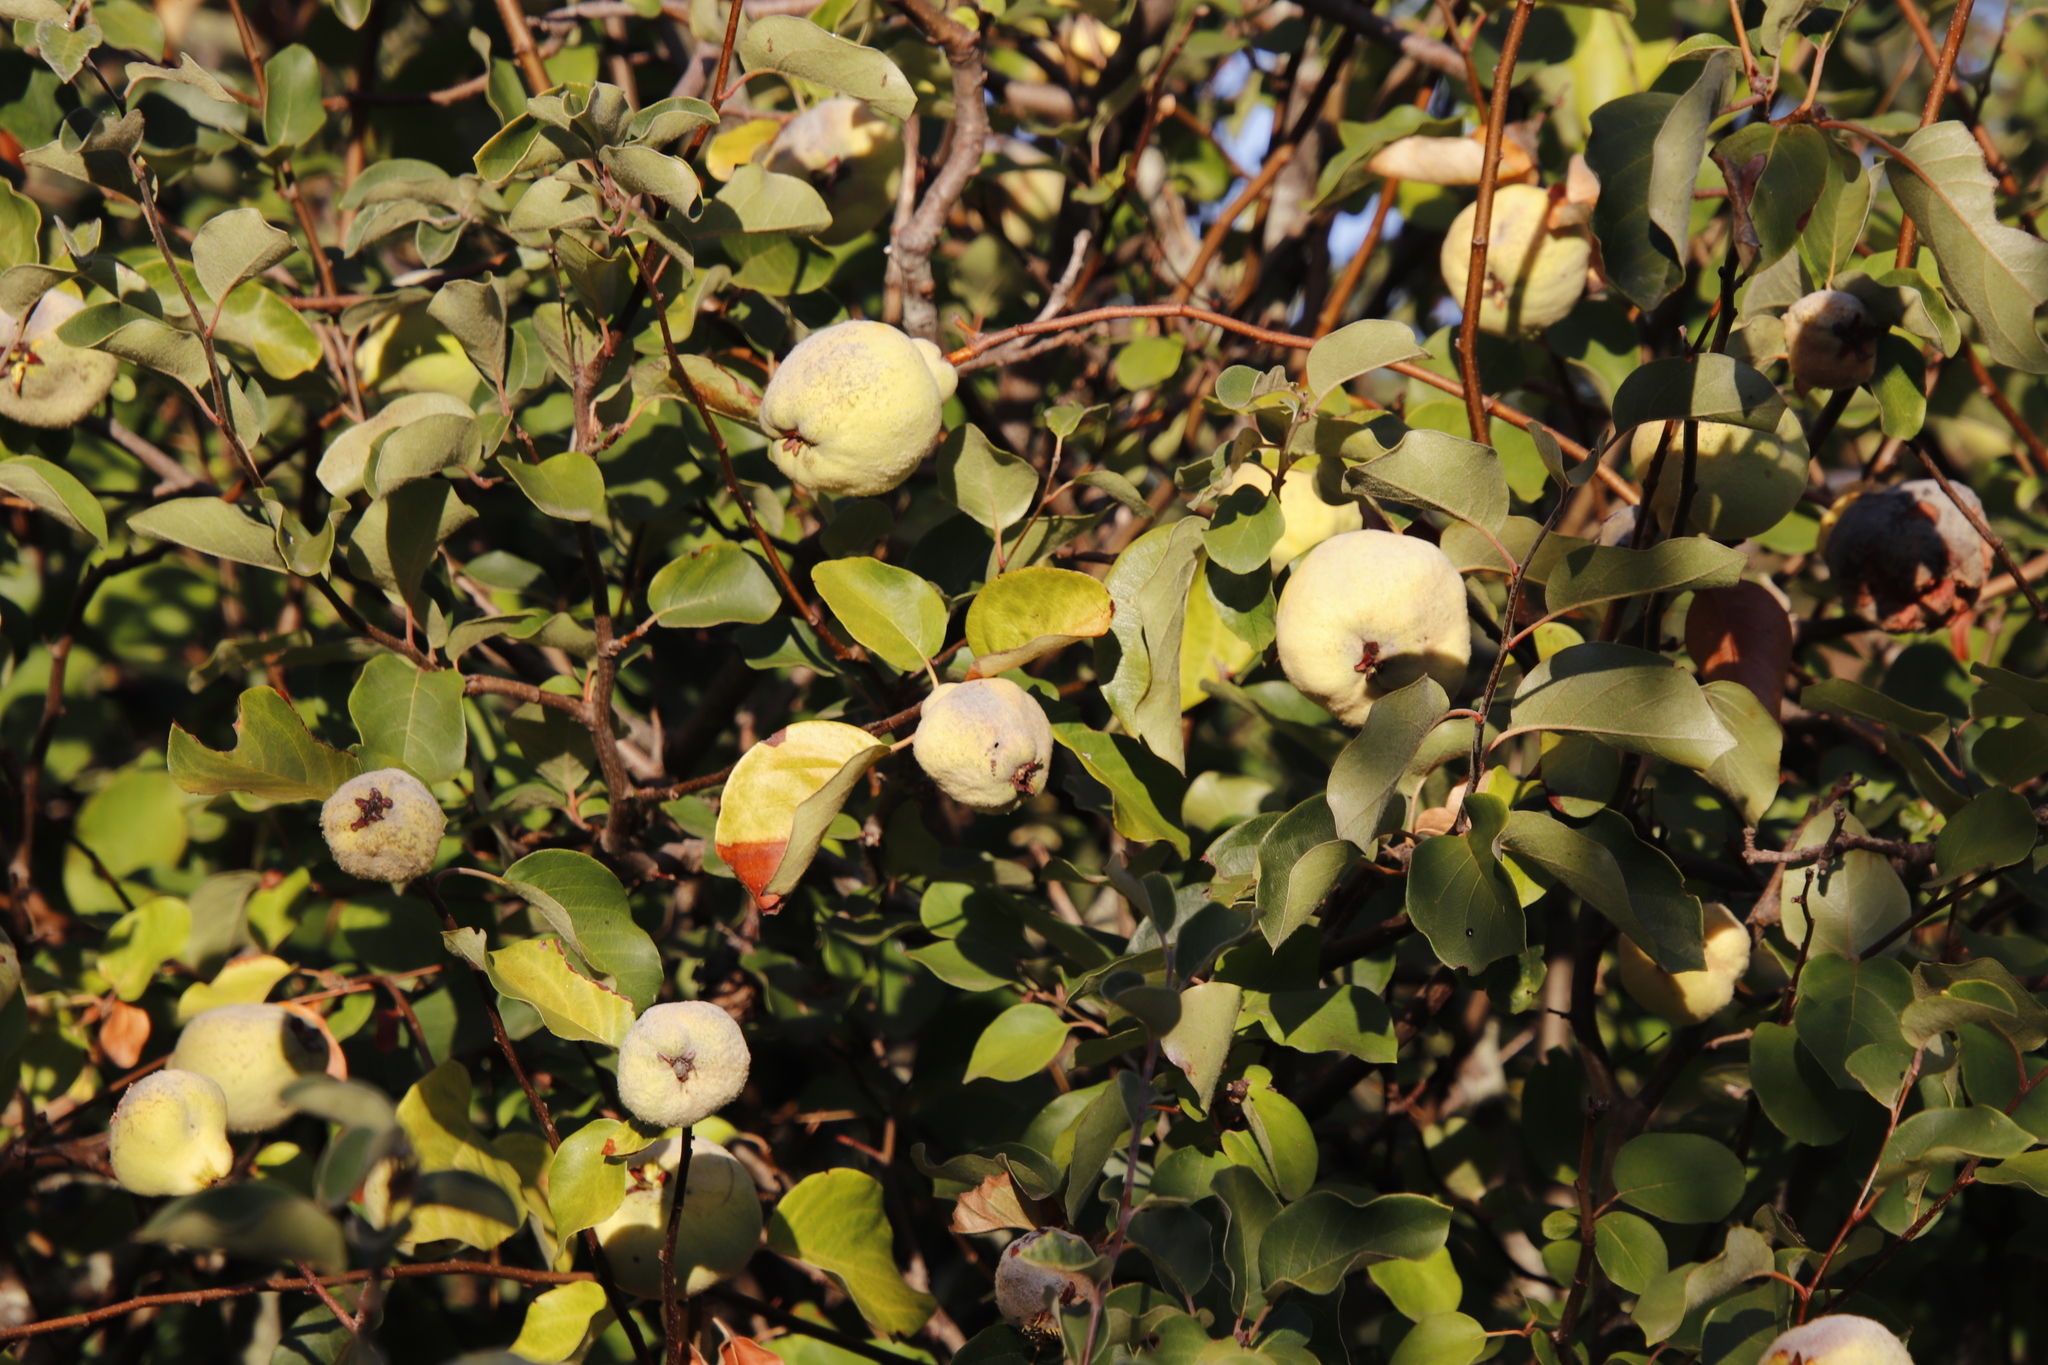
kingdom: Plantae
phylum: Tracheophyta
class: Magnoliopsida
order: Rosales
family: Rosaceae
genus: Cydonia
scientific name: Cydonia oblonga
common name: Quince
